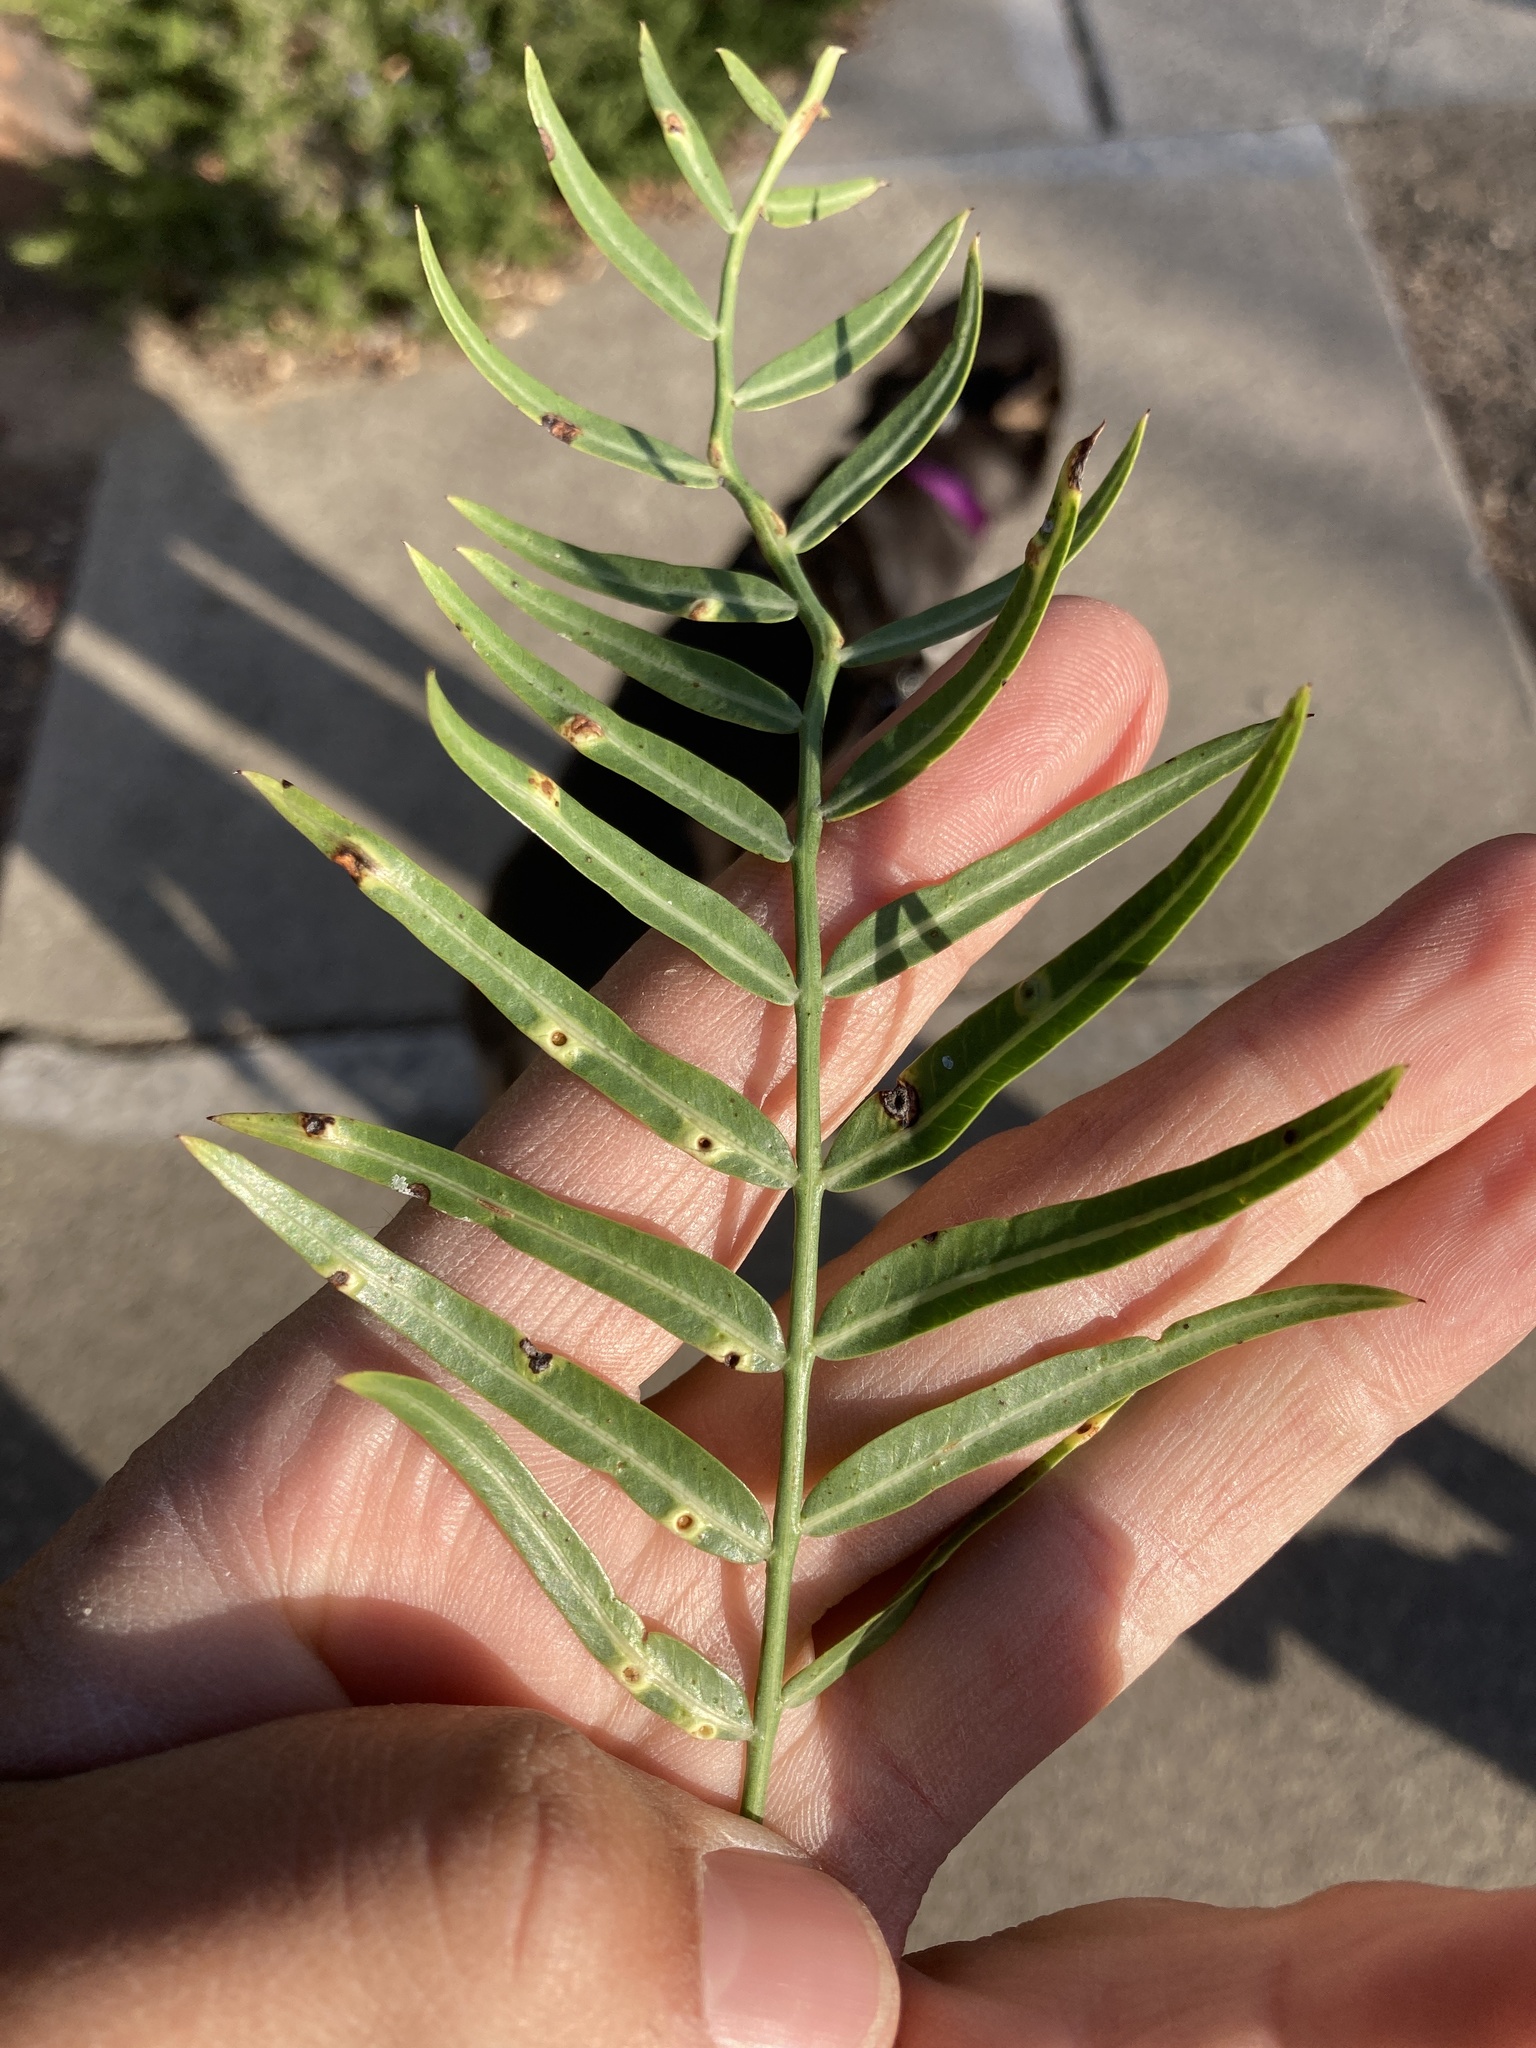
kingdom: Animalia
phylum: Arthropoda
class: Insecta
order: Hemiptera
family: Calophyidae
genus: Calophya
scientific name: Calophya schini
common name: Pepper tree psyllid
